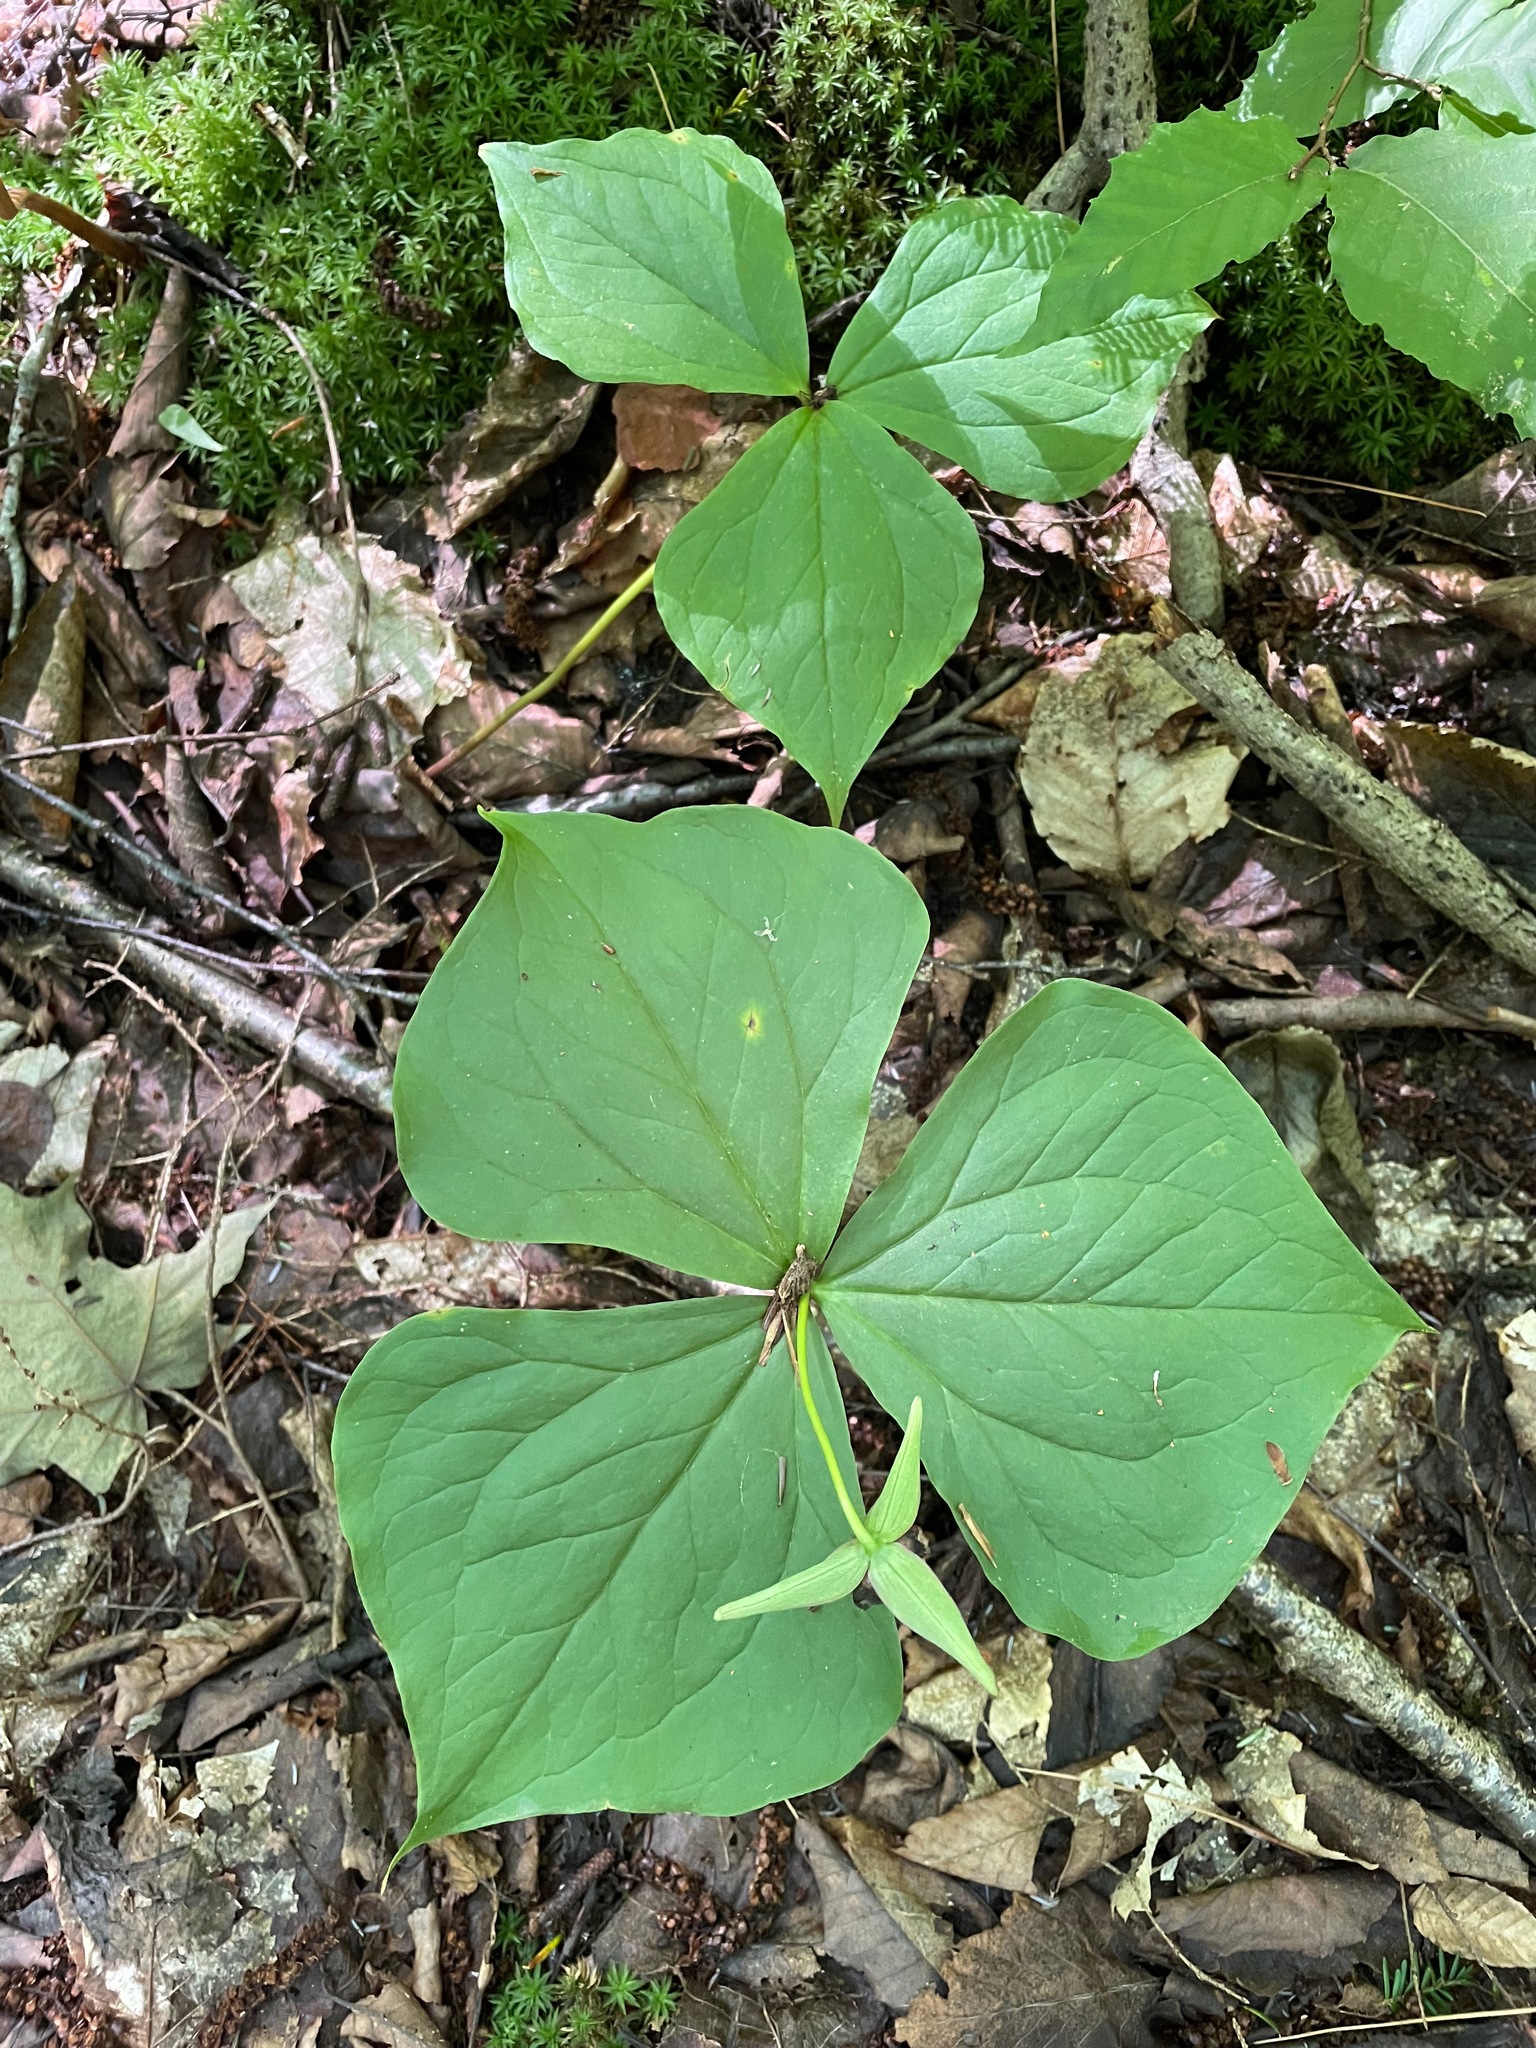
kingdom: Plantae
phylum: Tracheophyta
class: Liliopsida
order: Liliales
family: Melanthiaceae
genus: Trillium
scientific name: Trillium erectum
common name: Purple trillium
